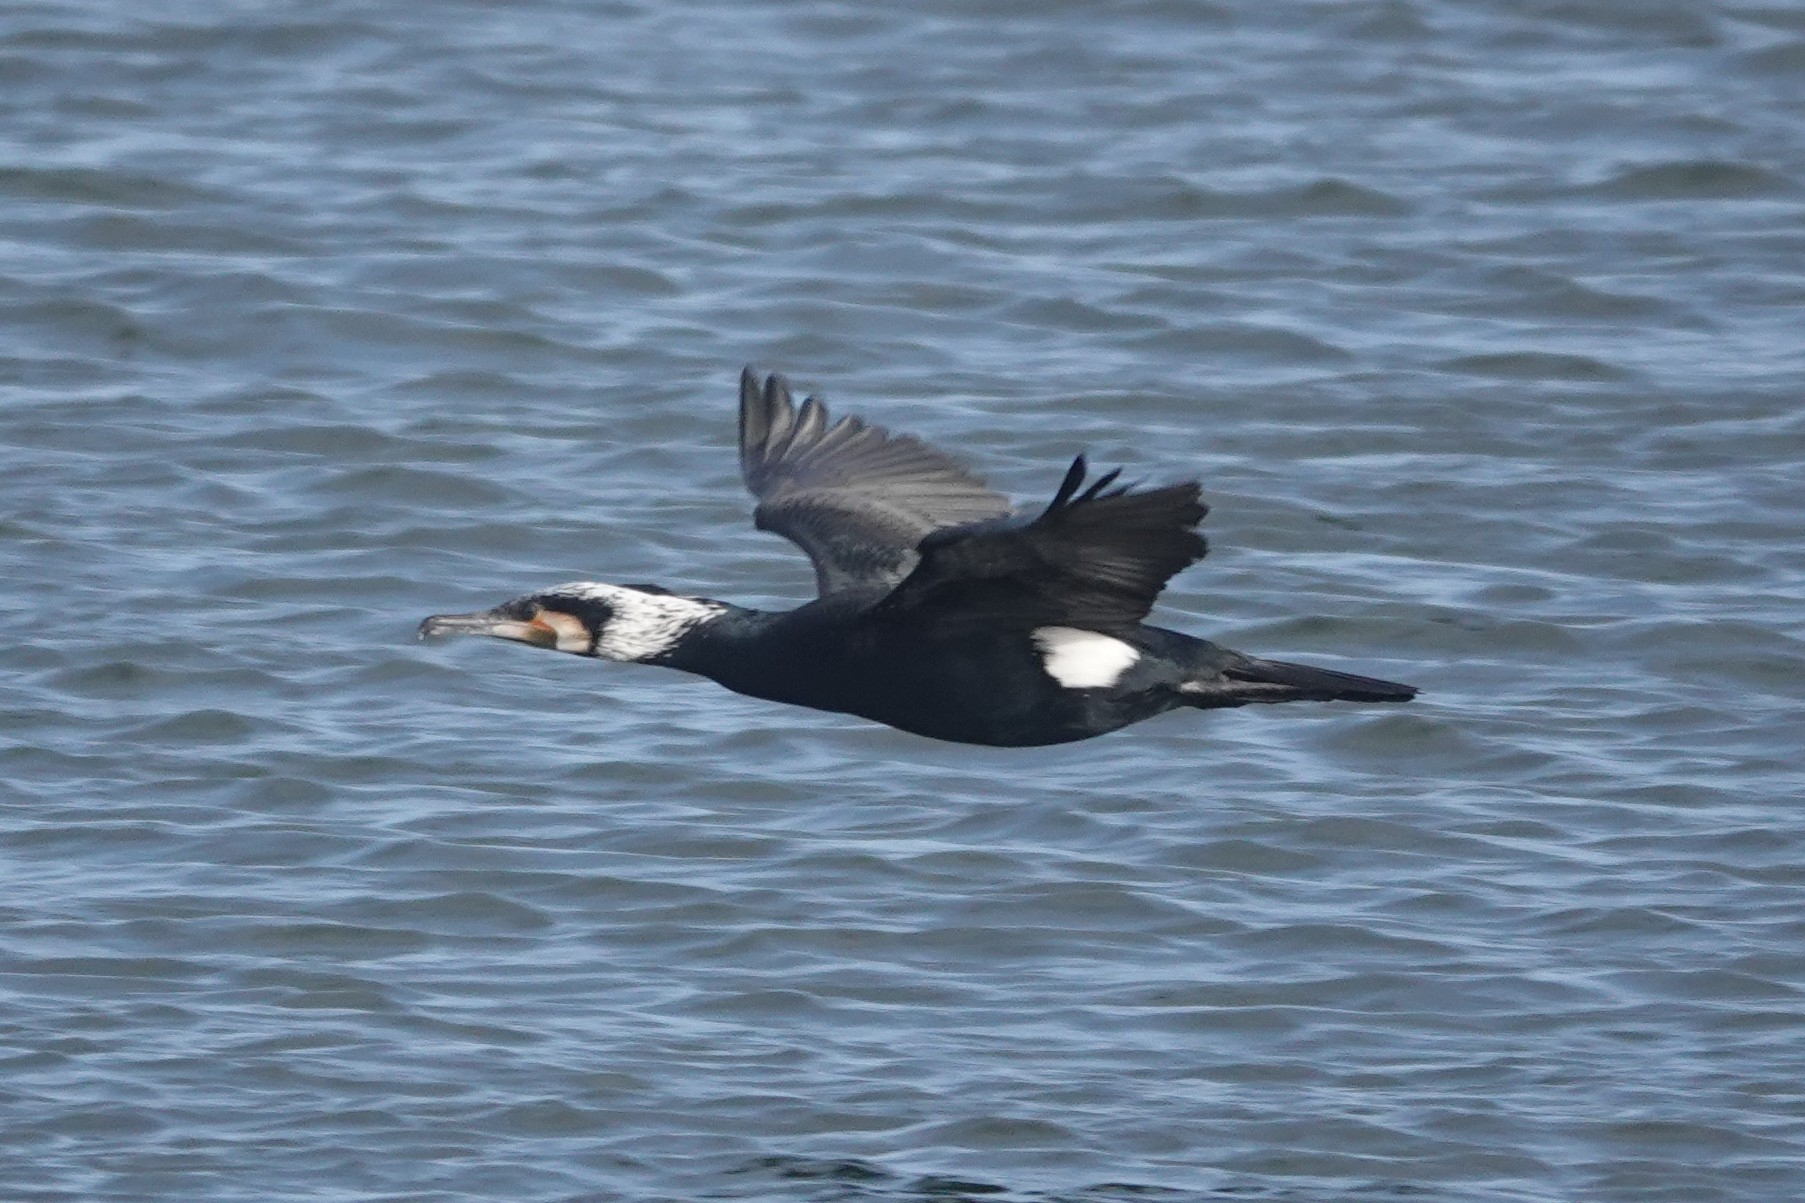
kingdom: Animalia
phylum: Chordata
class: Aves
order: Suliformes
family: Phalacrocoracidae
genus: Phalacrocorax
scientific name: Phalacrocorax carbo
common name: Great cormorant
